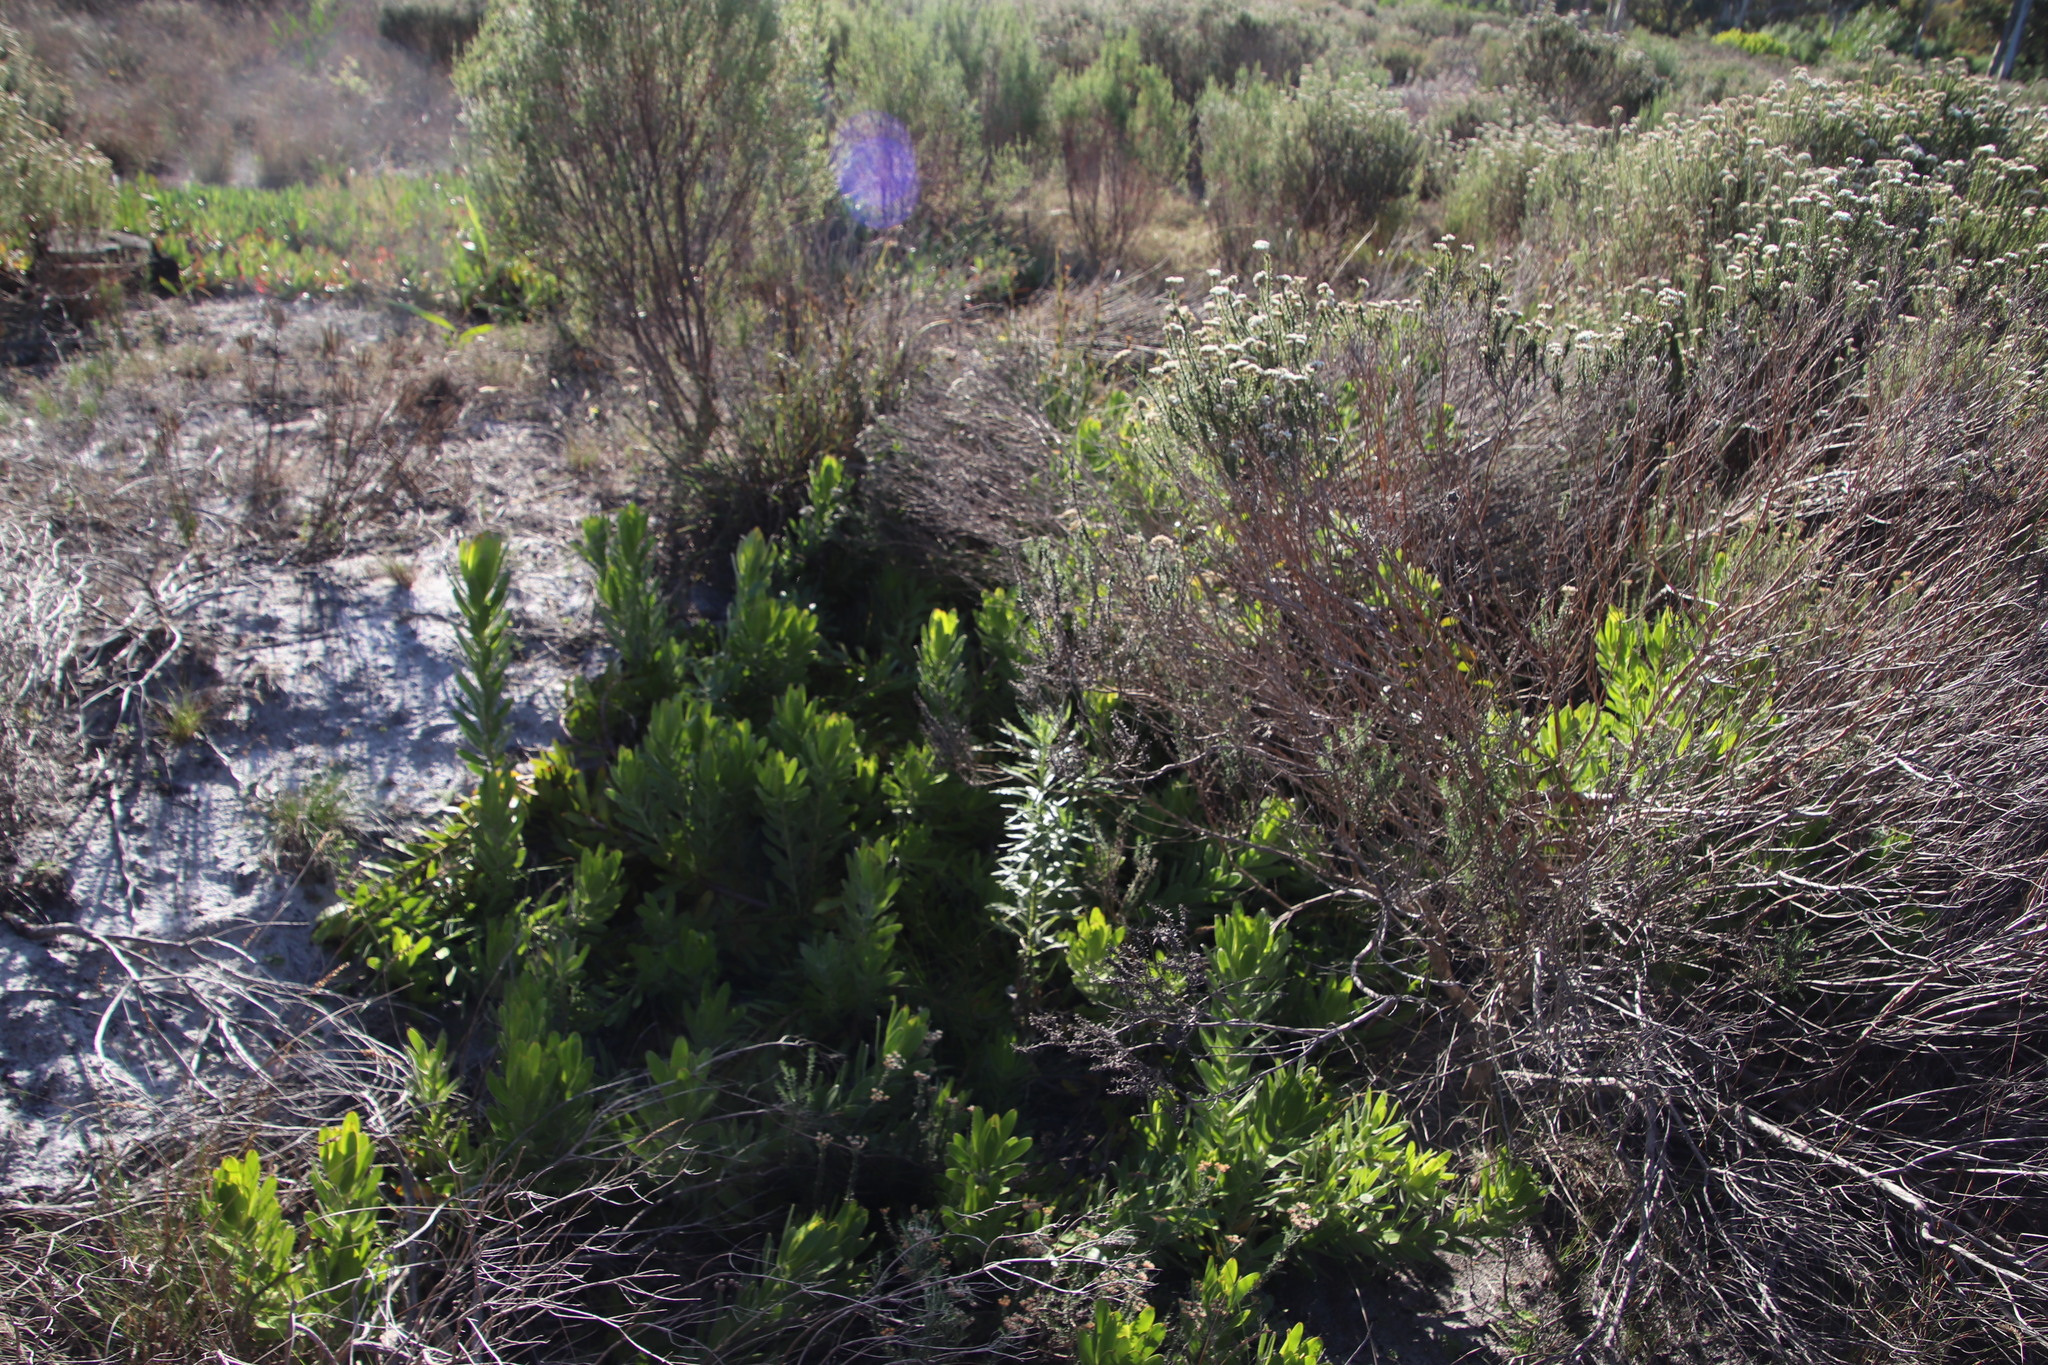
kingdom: Plantae
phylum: Tracheophyta
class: Magnoliopsida
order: Proteales
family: Proteaceae
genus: Leucadendron
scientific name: Leucadendron laureolum
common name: Golden sunshinebush
